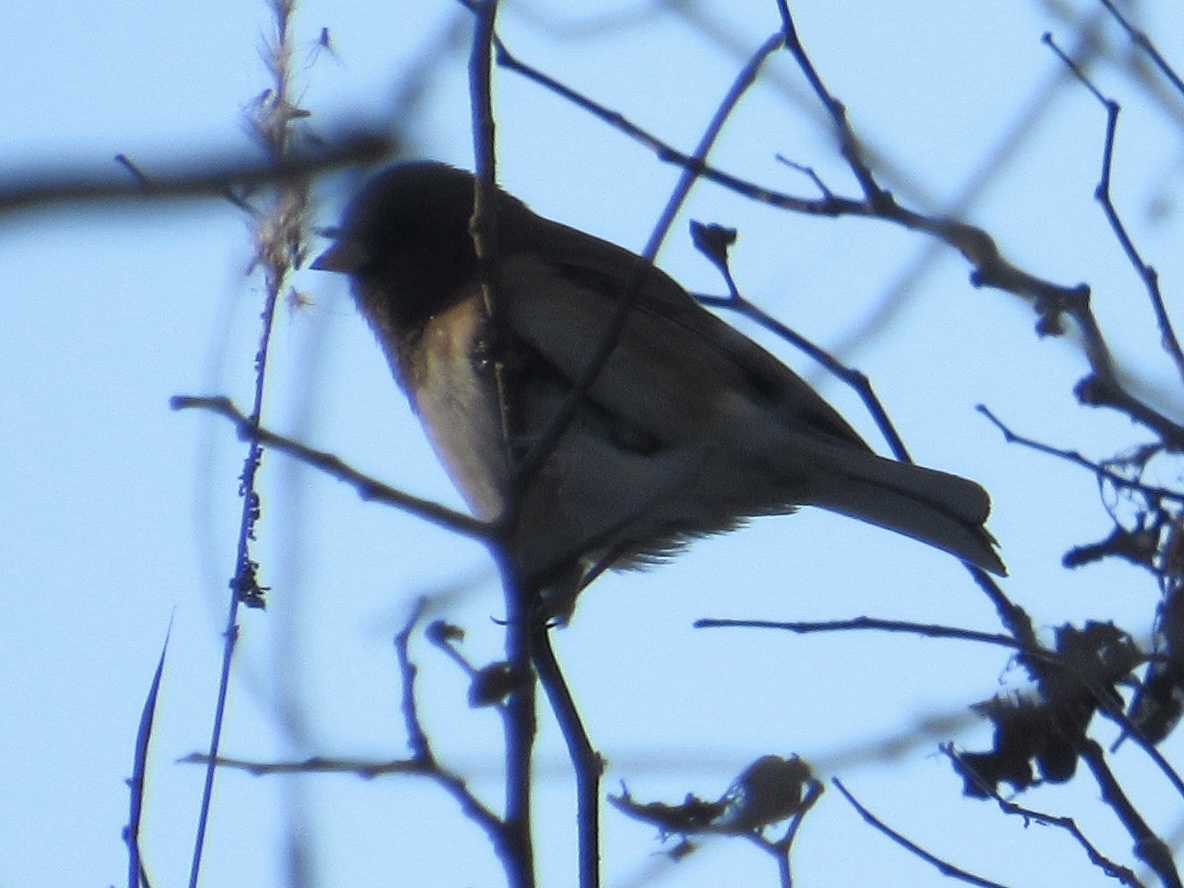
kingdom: Animalia
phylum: Chordata
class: Aves
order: Passeriformes
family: Passerellidae
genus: Junco
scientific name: Junco hyemalis
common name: Dark-eyed junco
